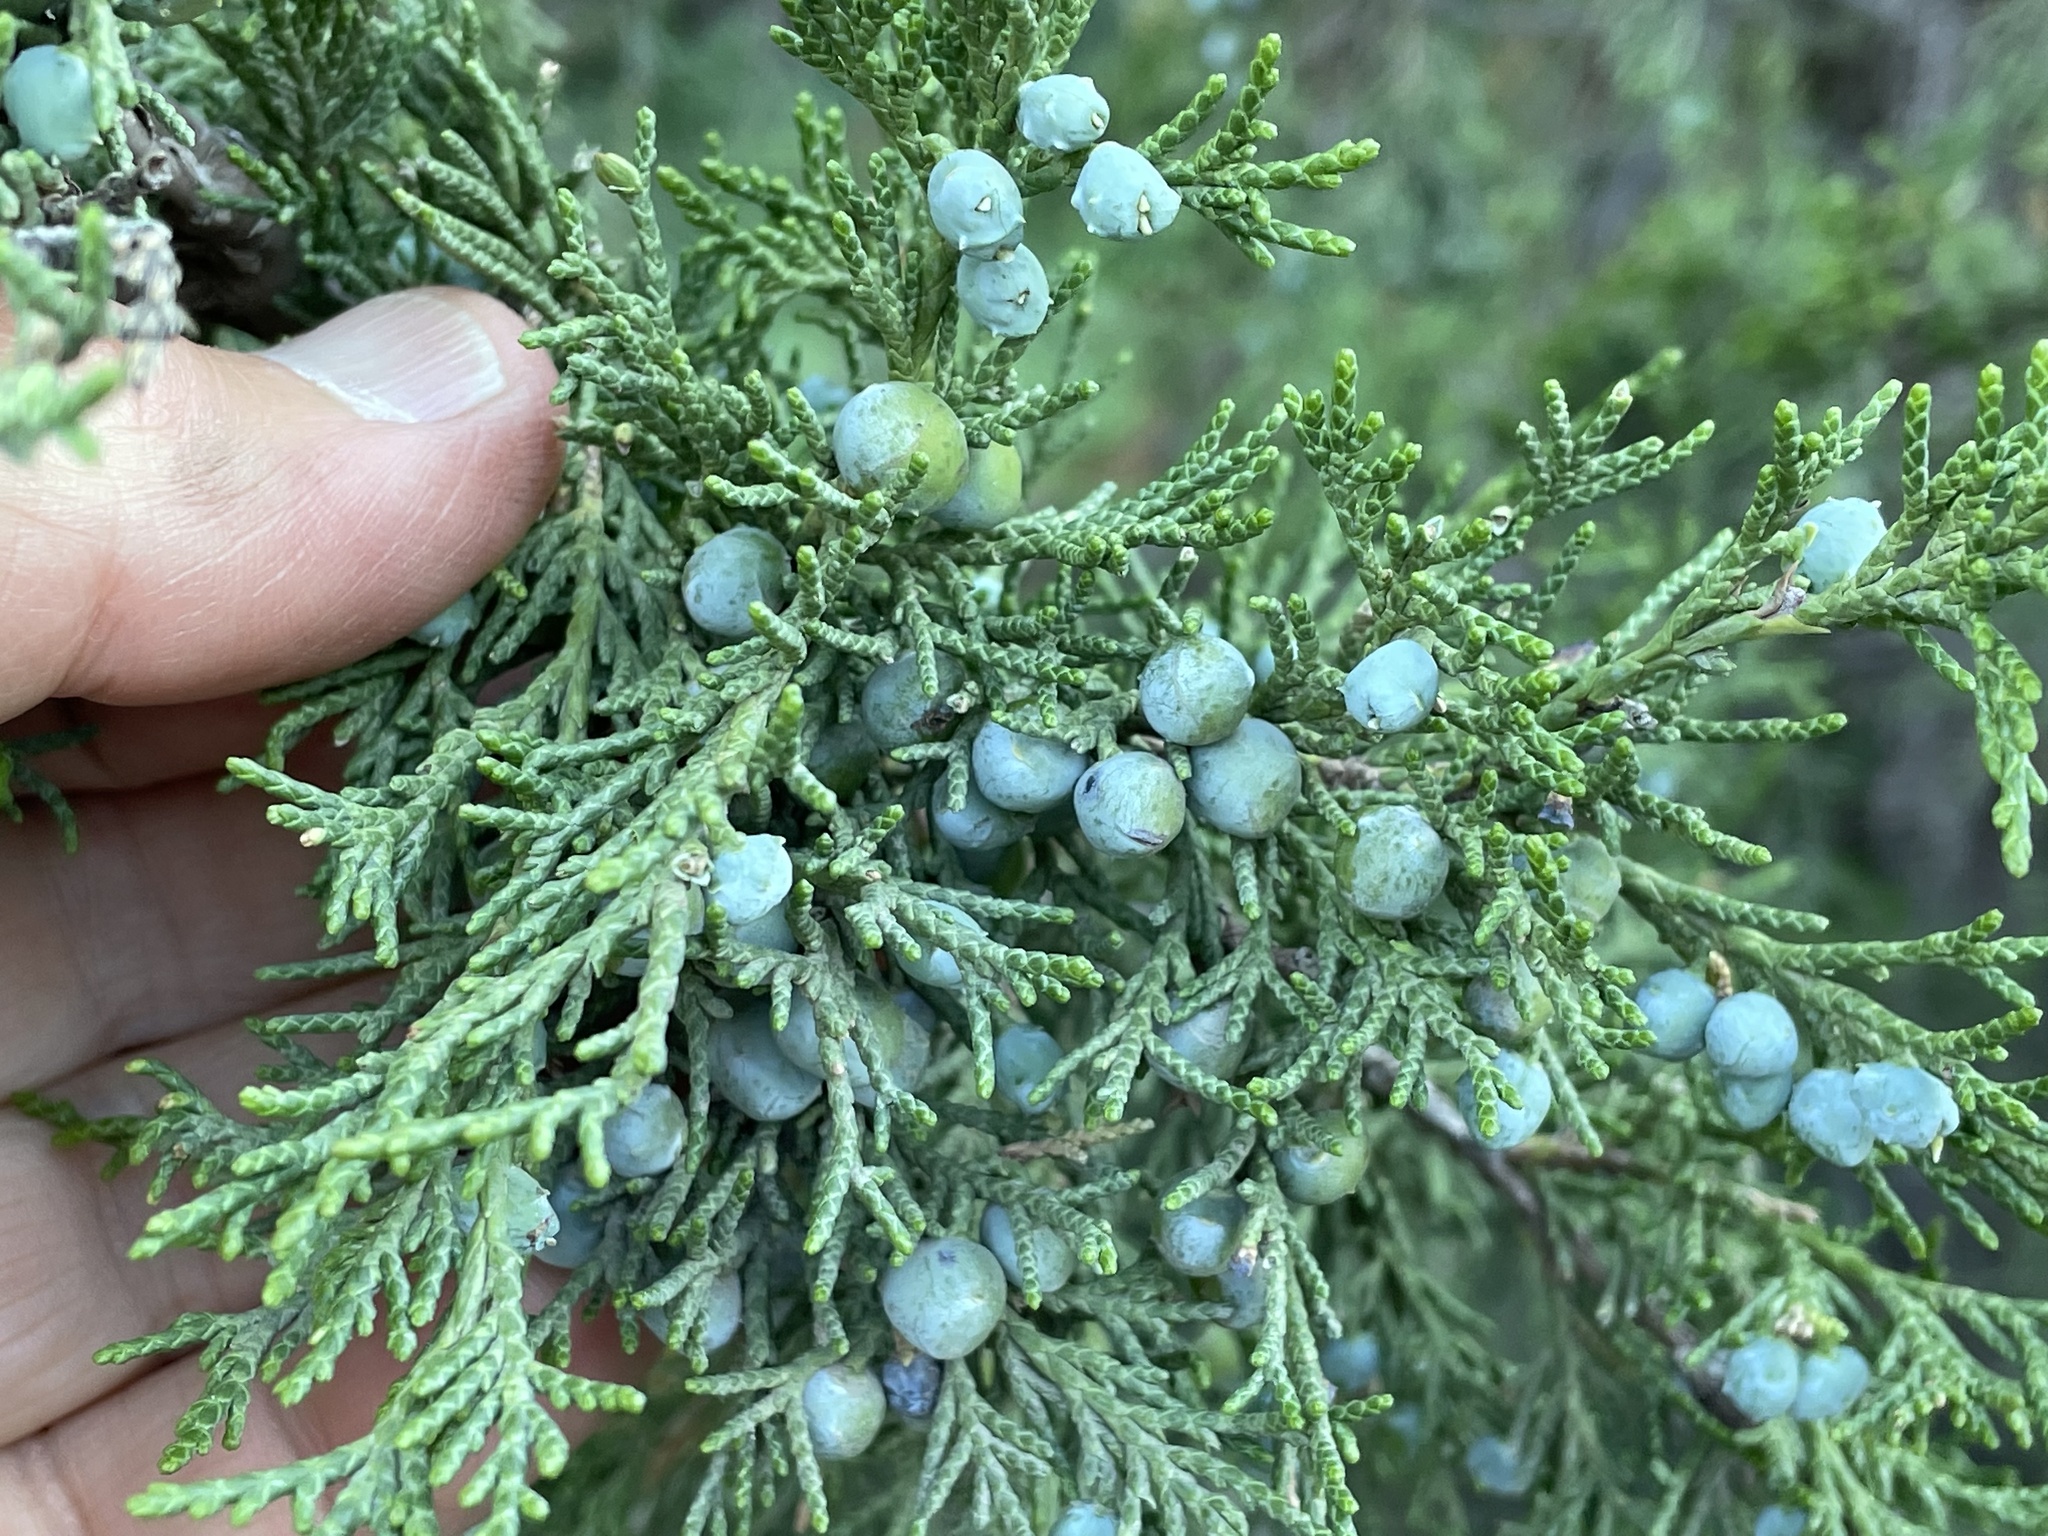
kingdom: Plantae
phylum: Tracheophyta
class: Pinopsida
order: Pinales
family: Cupressaceae
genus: Juniperus
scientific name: Juniperus scopulorum
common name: Rocky mountain juniper
